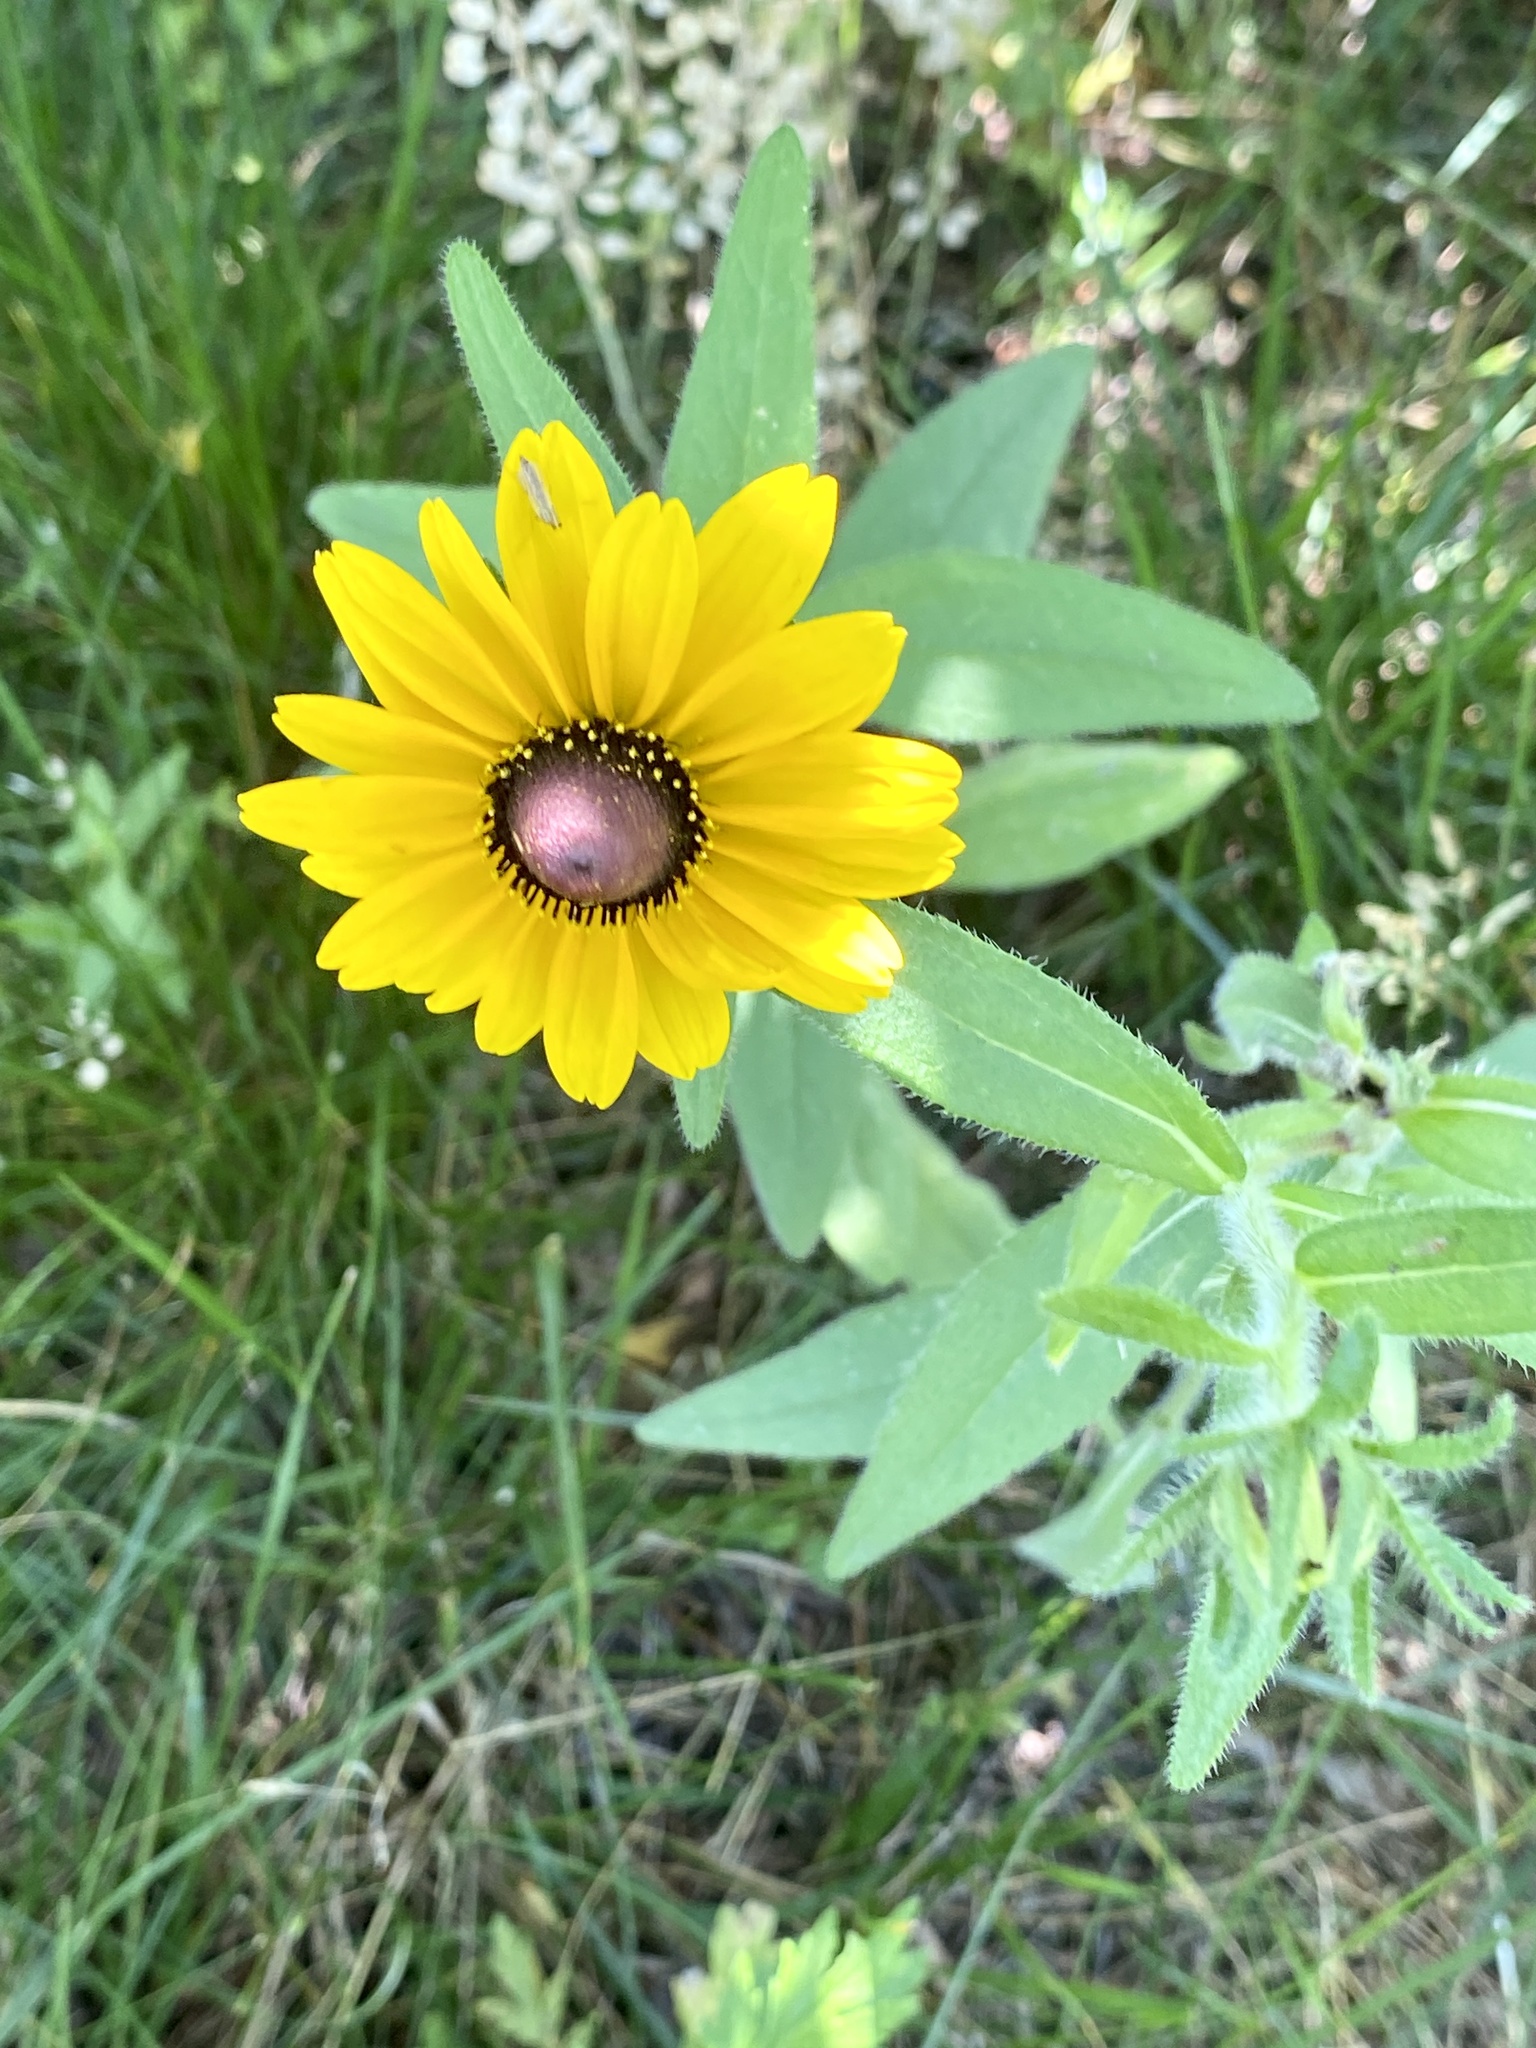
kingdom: Plantae
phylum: Tracheophyta
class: Magnoliopsida
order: Asterales
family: Asteraceae
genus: Rudbeckia
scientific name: Rudbeckia hirta
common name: Black-eyed-susan
